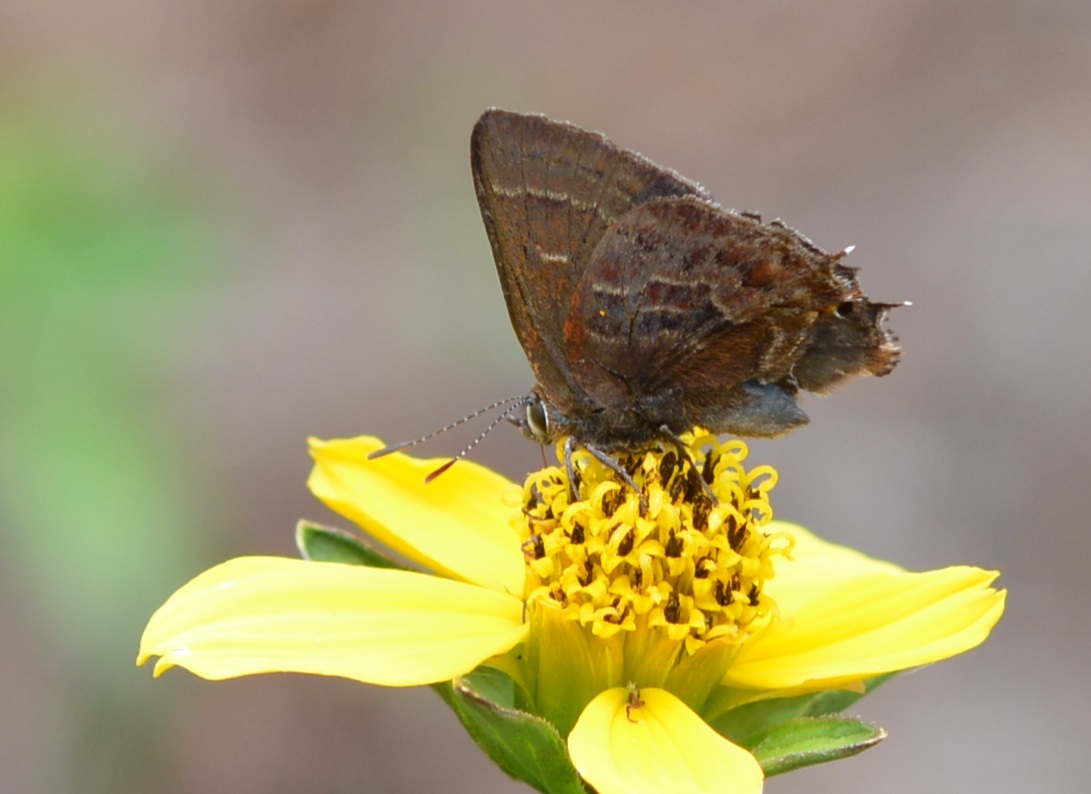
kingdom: Animalia
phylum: Arthropoda
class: Insecta
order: Lepidoptera
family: Lycaenidae
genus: Callophrys
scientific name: Callophrys
